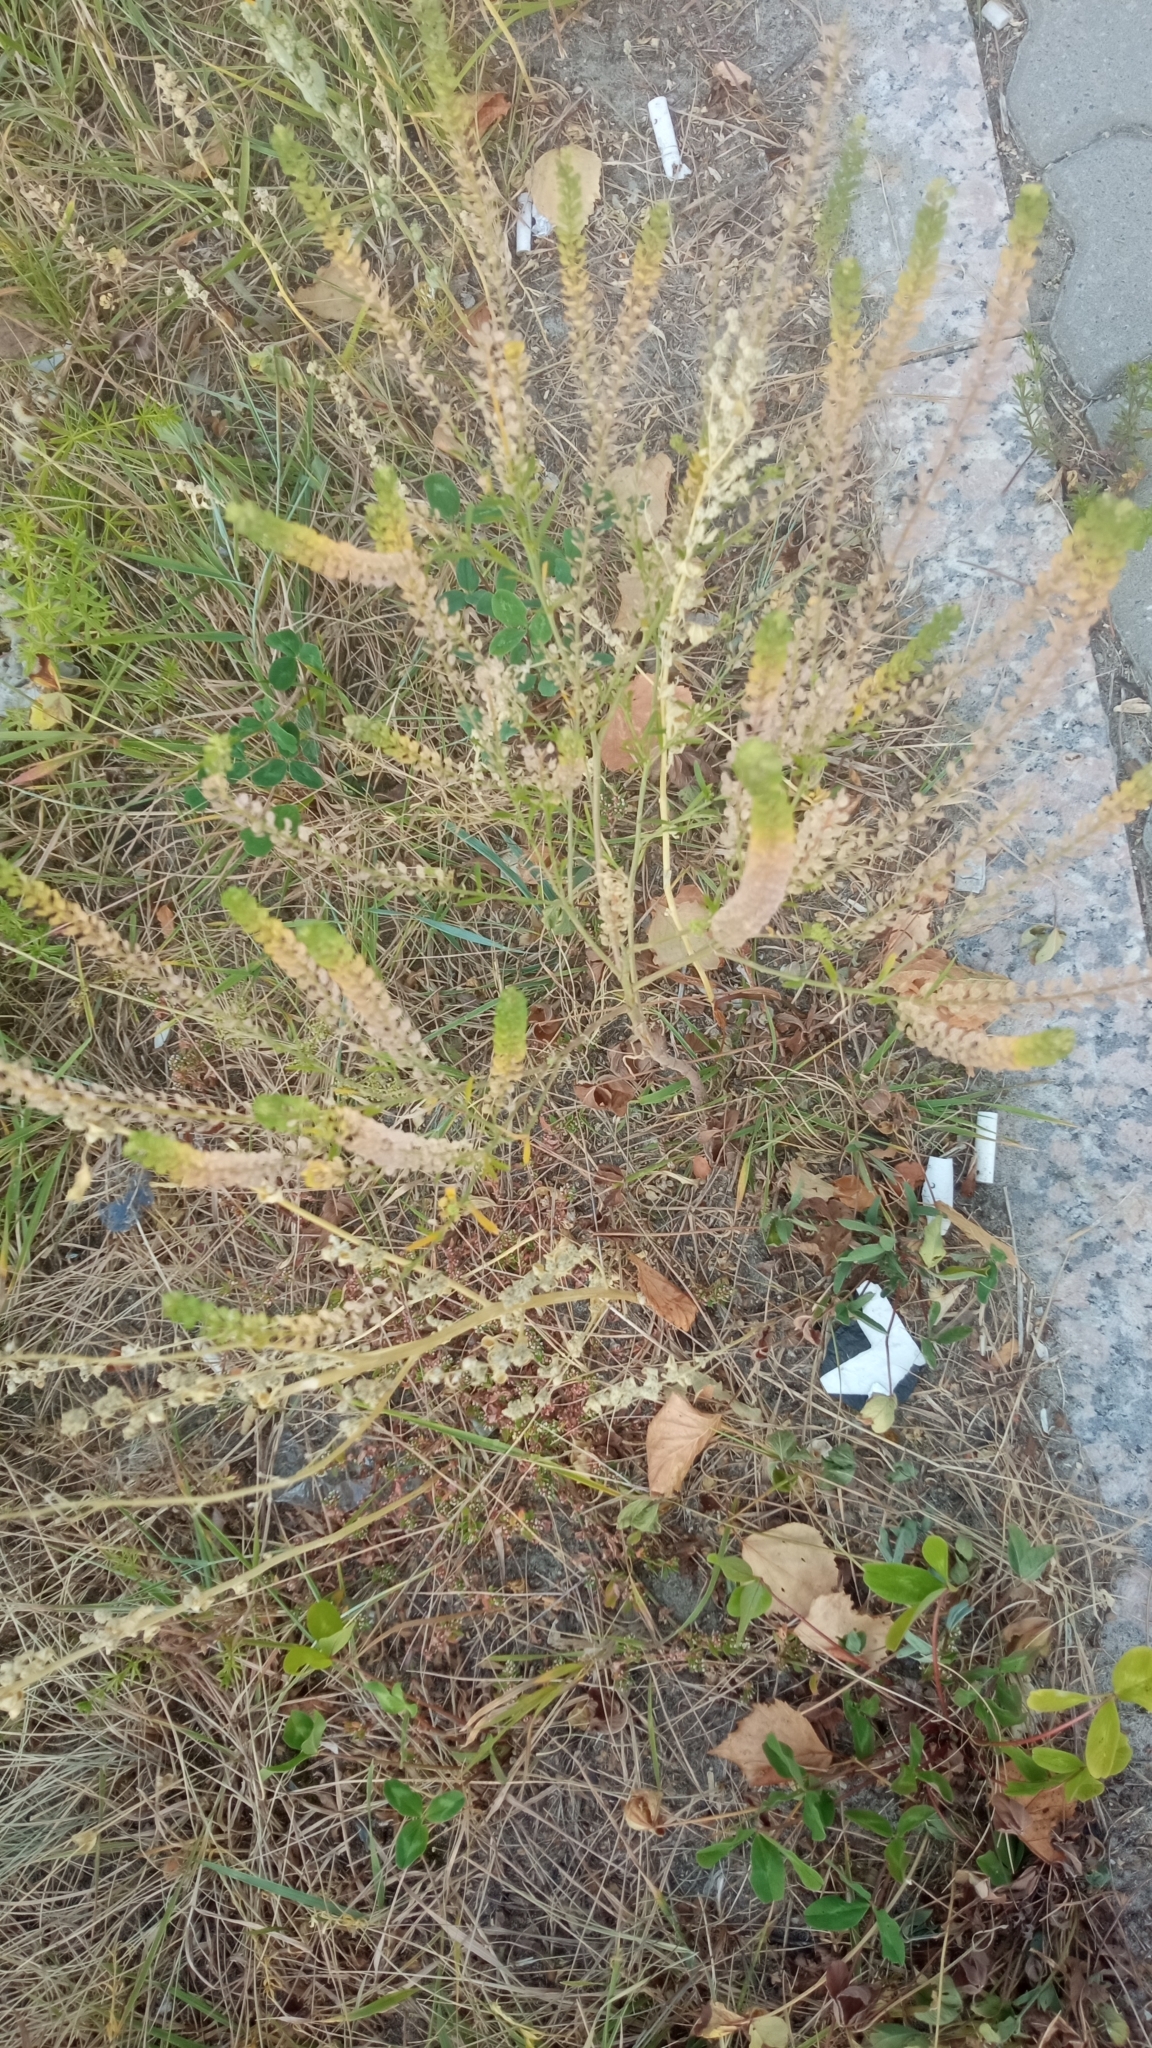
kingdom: Plantae
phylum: Tracheophyta
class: Magnoliopsida
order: Brassicales
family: Brassicaceae
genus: Lepidium
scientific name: Lepidium densiflorum
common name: Miner's pepperwort
